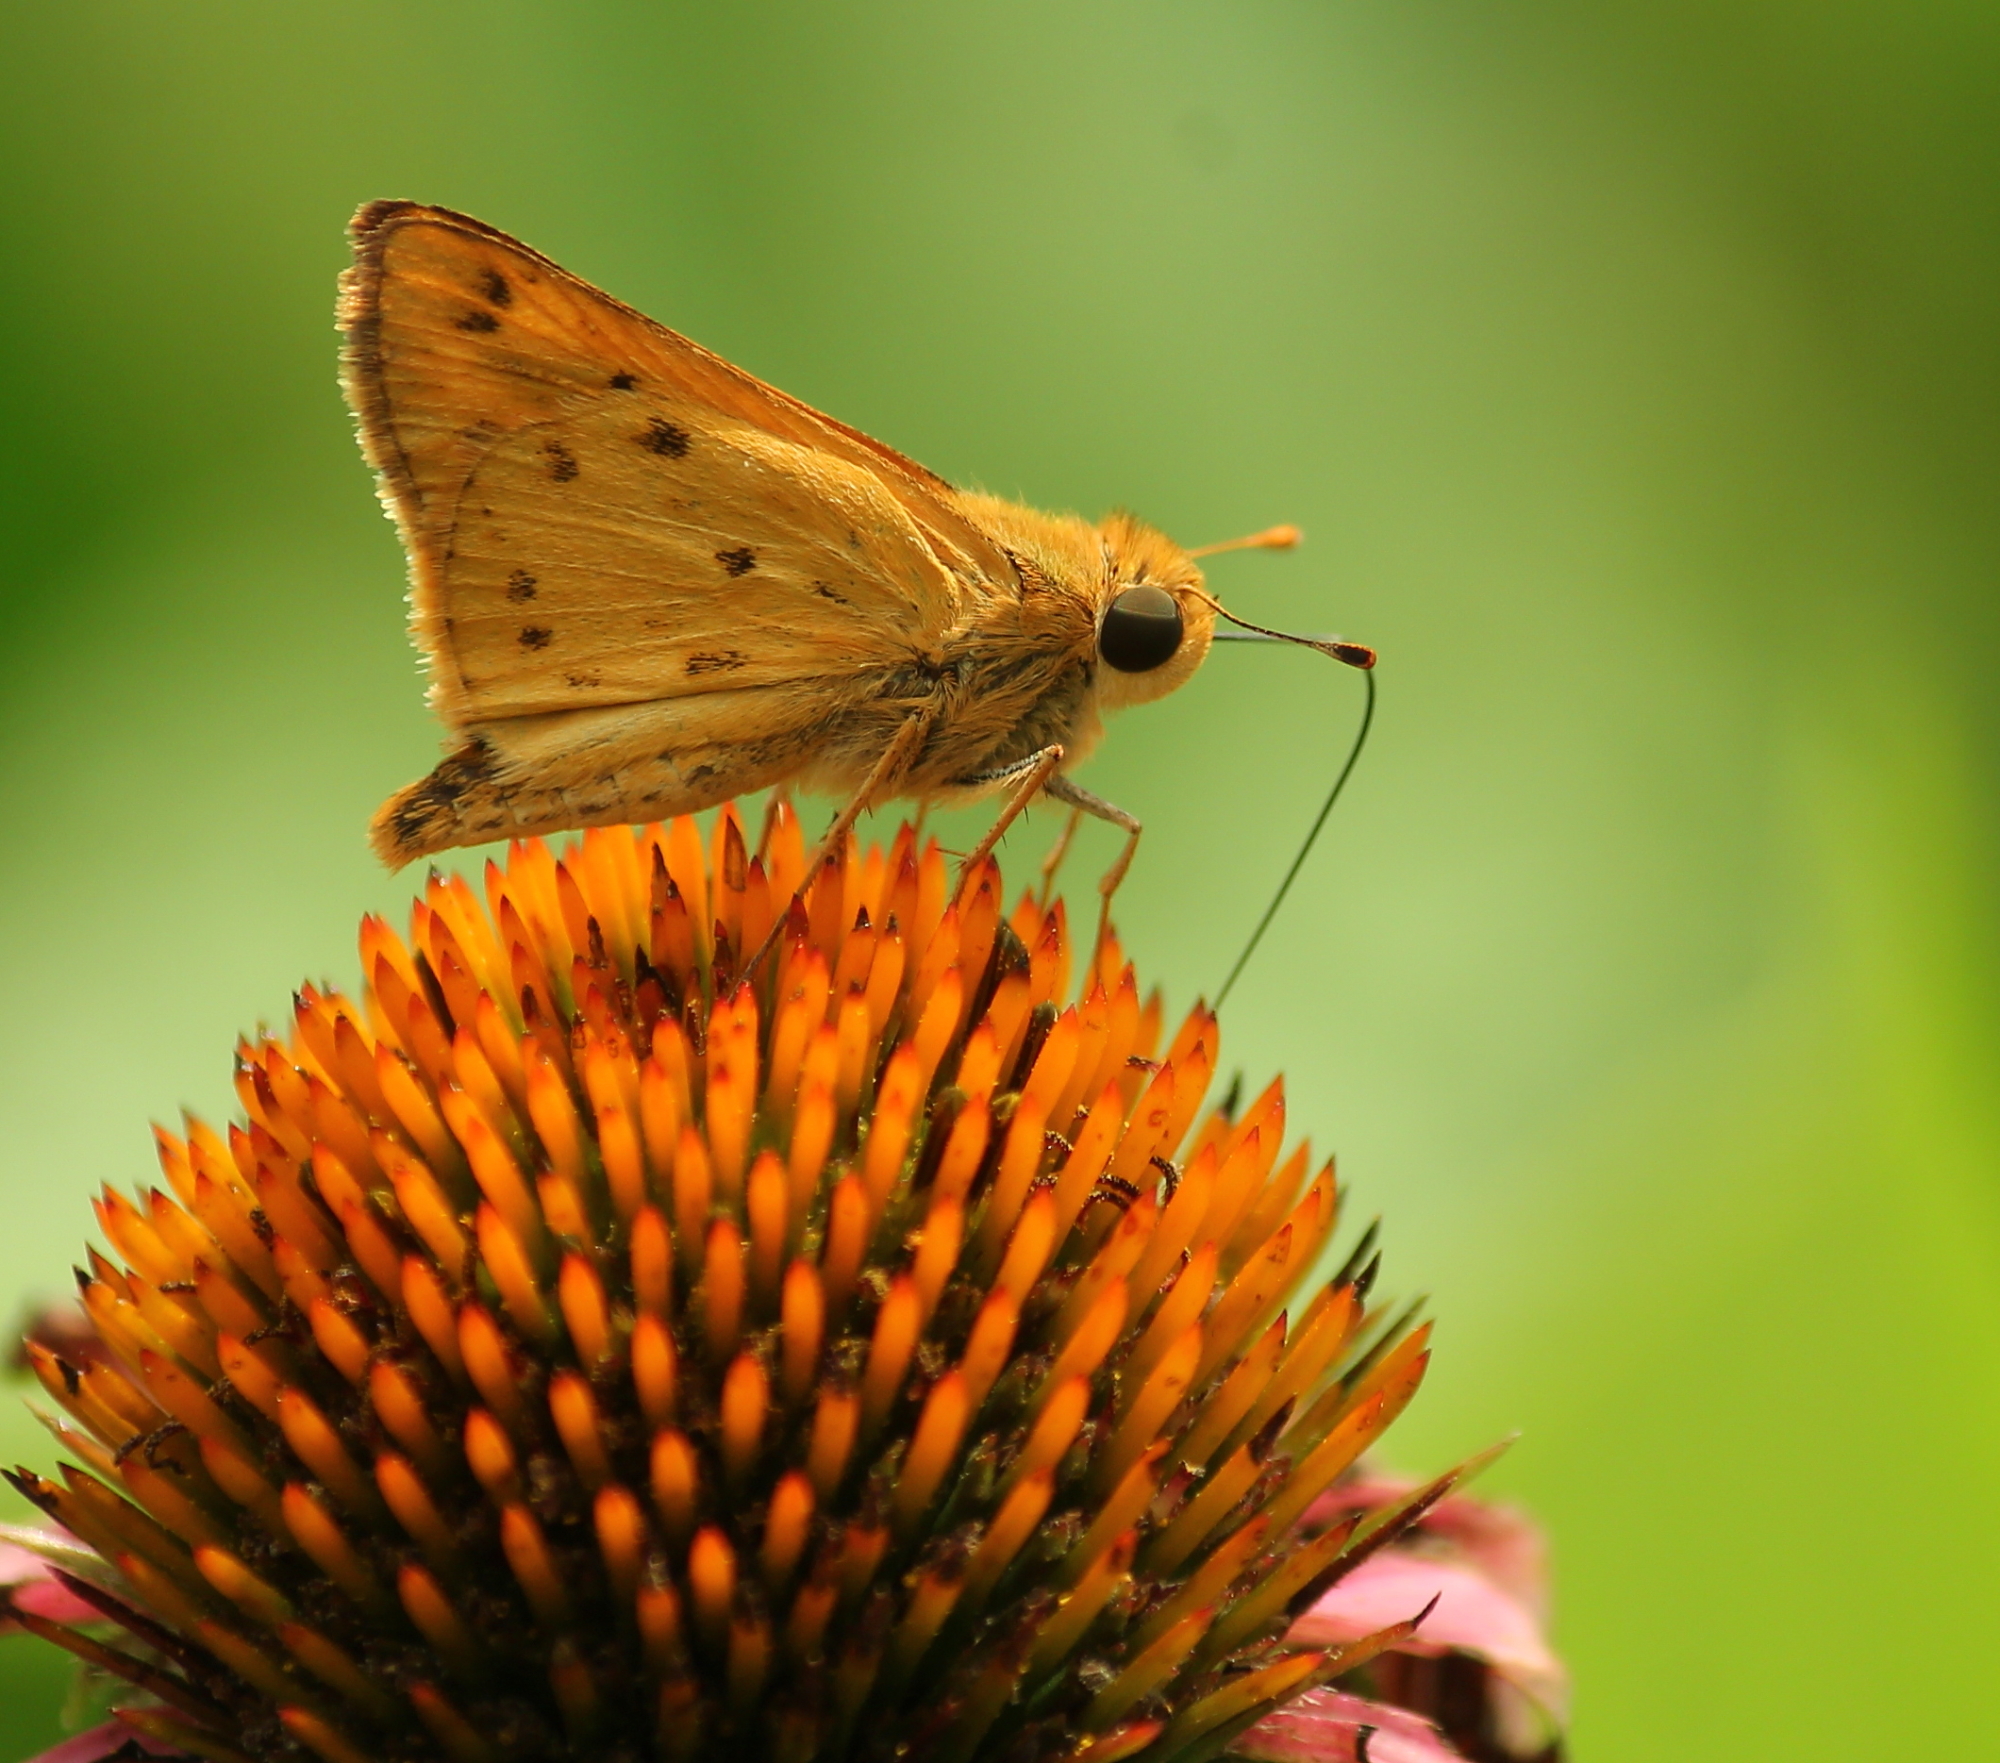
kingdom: Animalia
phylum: Arthropoda
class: Insecta
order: Lepidoptera
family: Hesperiidae
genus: Hylephila
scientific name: Hylephila phyleus
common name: Fiery skipper
